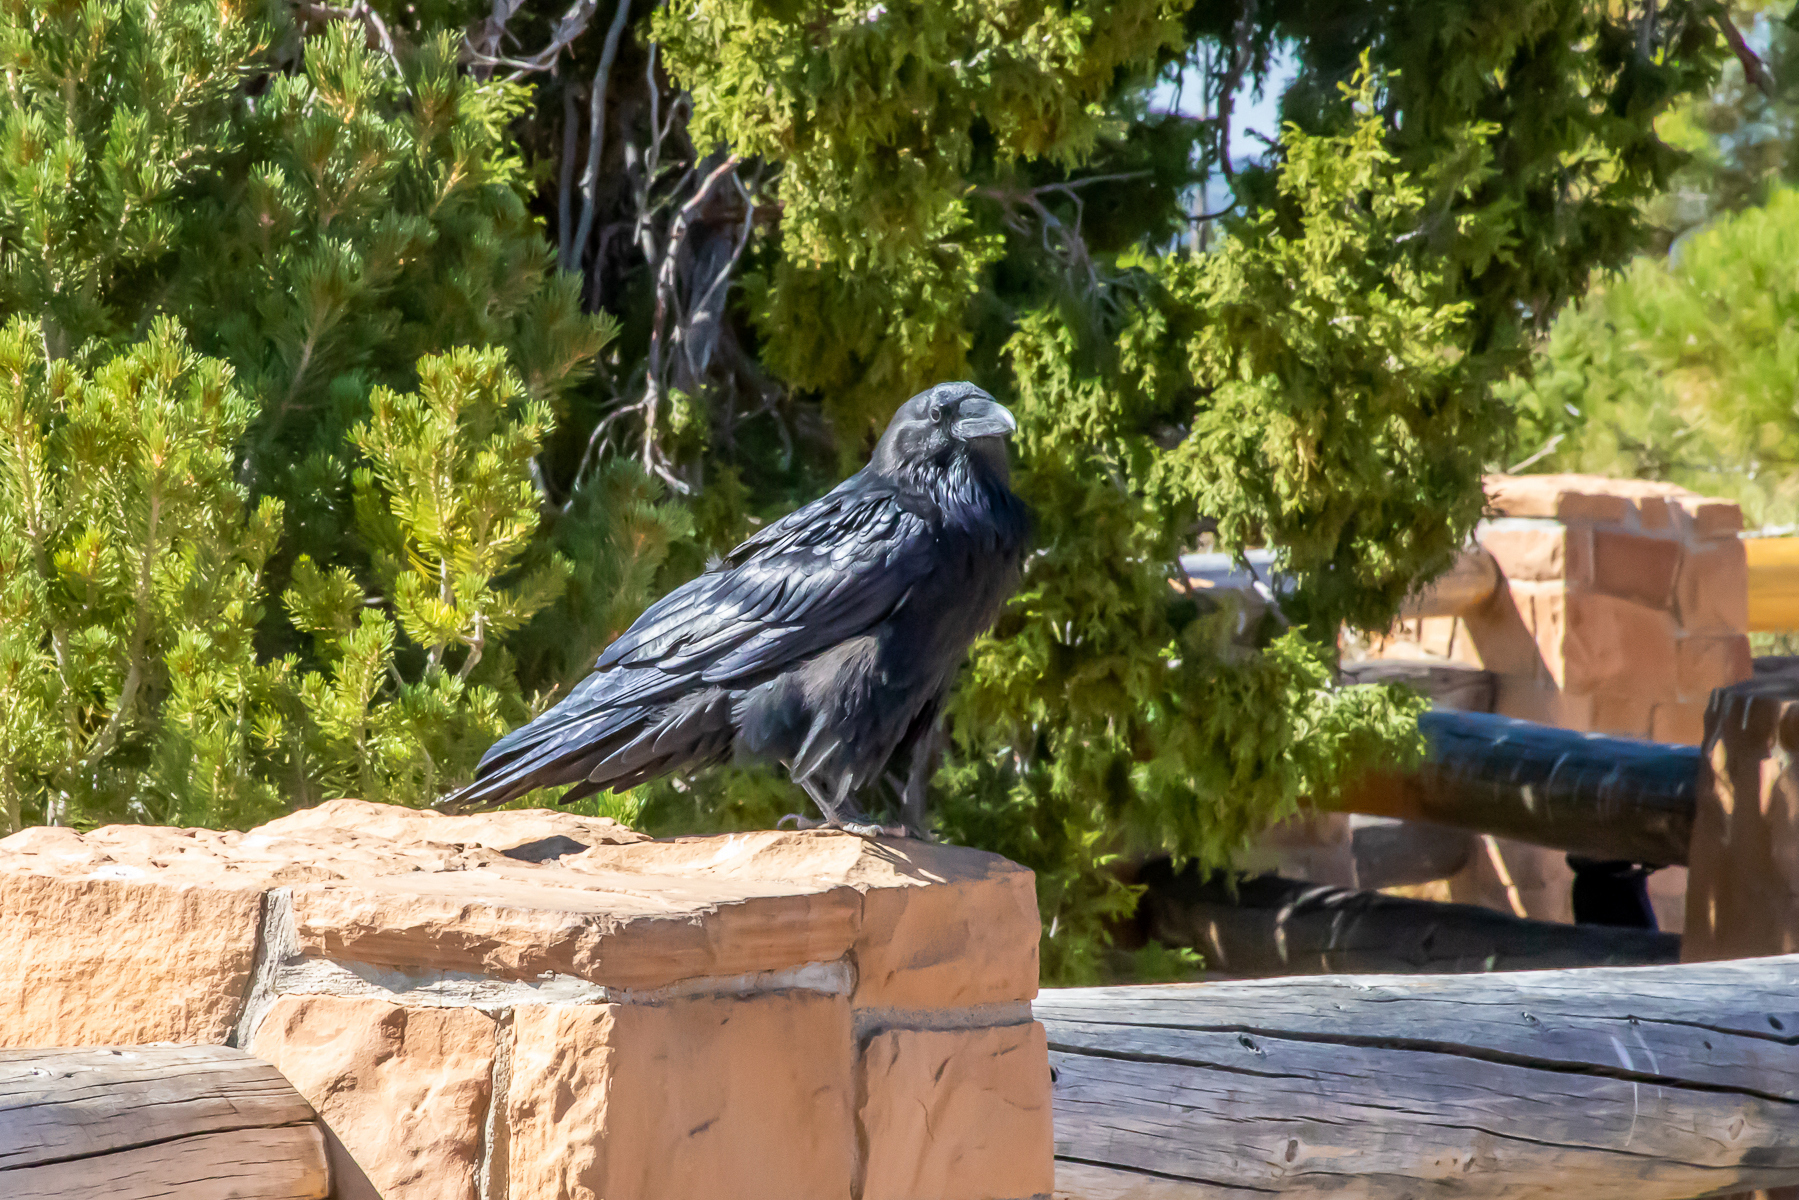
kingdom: Animalia
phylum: Chordata
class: Aves
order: Passeriformes
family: Corvidae
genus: Corvus
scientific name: Corvus corax
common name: Common raven
